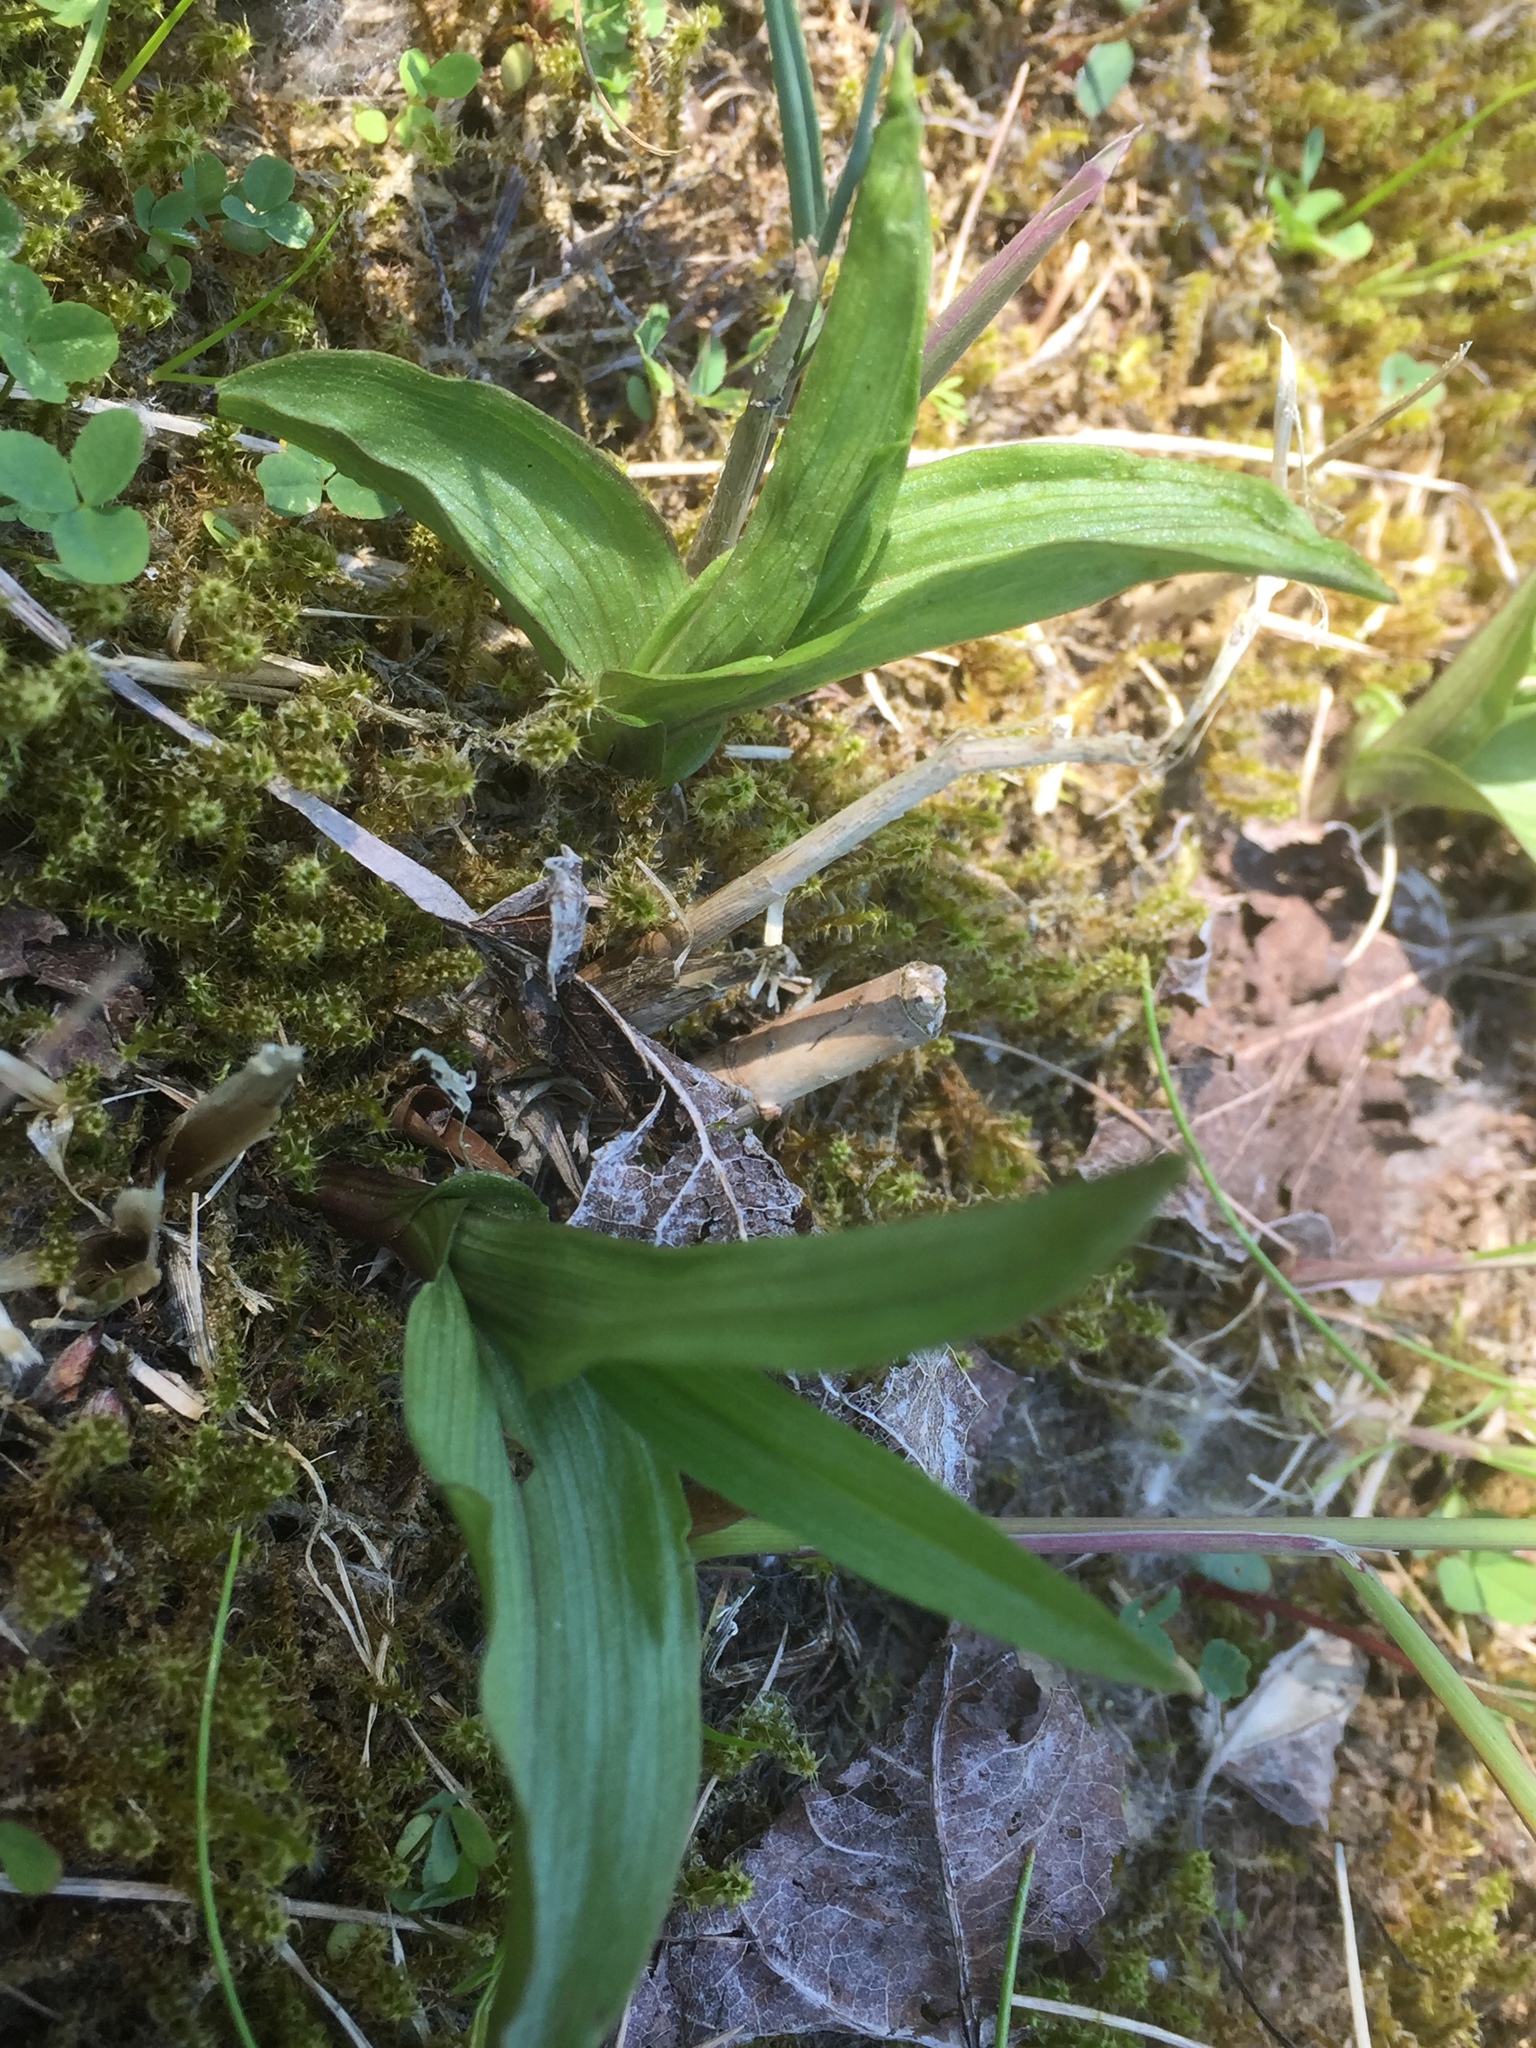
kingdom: Plantae
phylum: Tracheophyta
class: Liliopsida
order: Asparagales
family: Orchidaceae
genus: Epipactis
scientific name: Epipactis palustris
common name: Marsh helleborine
